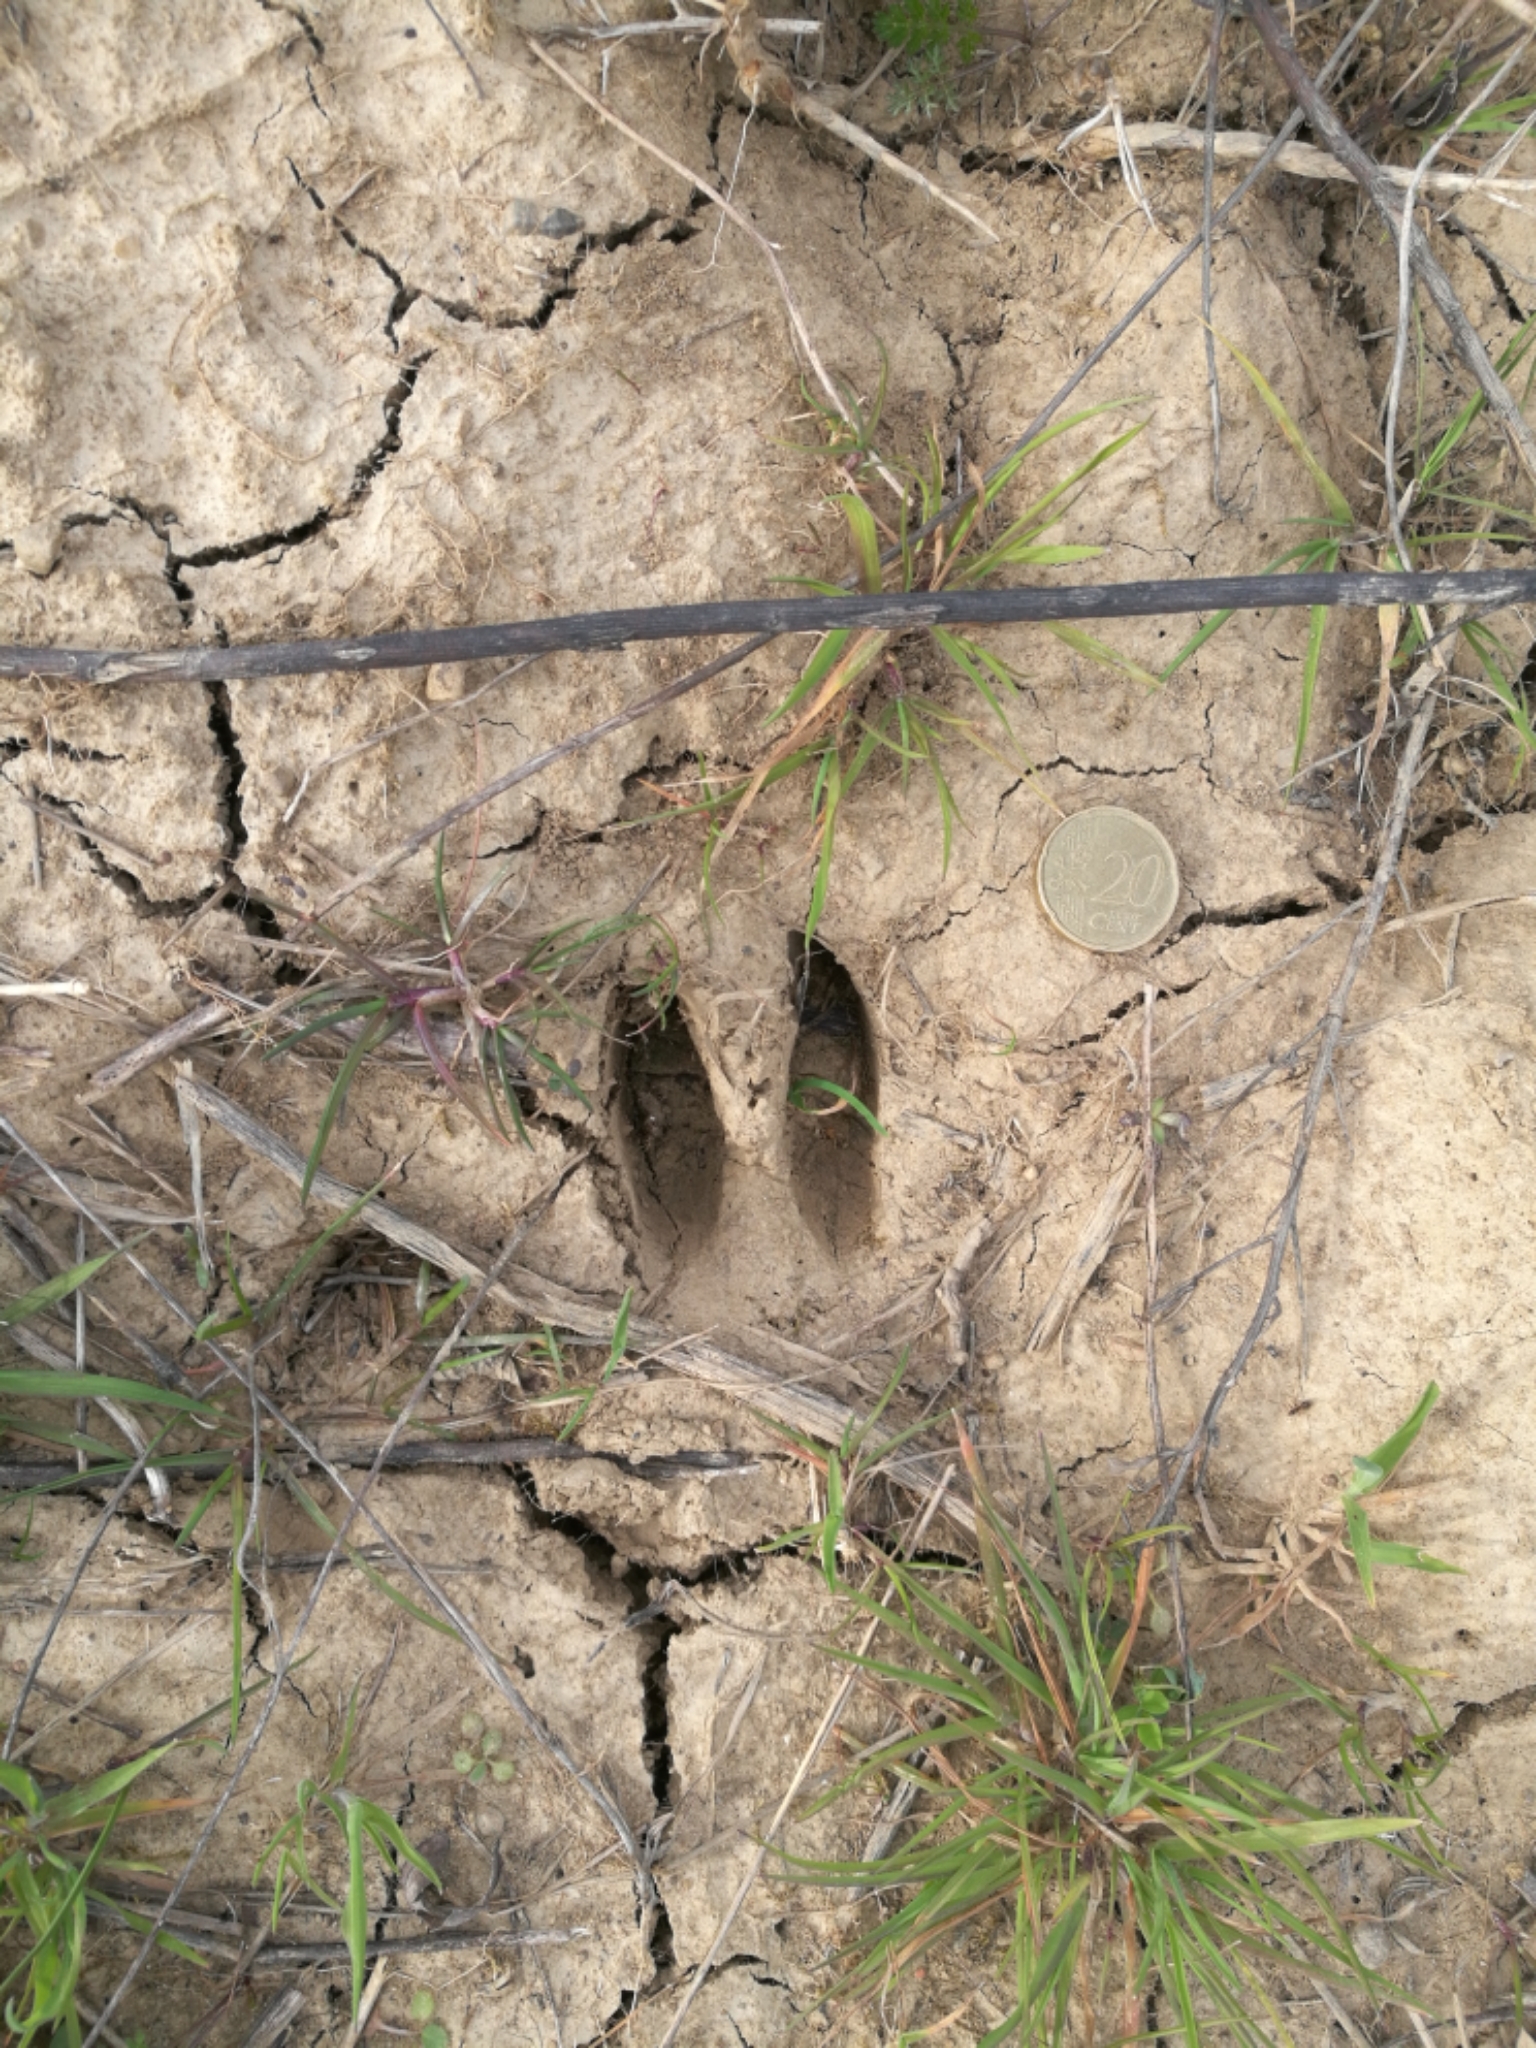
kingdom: Animalia
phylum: Chordata
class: Mammalia
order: Artiodactyla
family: Cervidae
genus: Capreolus
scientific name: Capreolus capreolus
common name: Western roe deer
